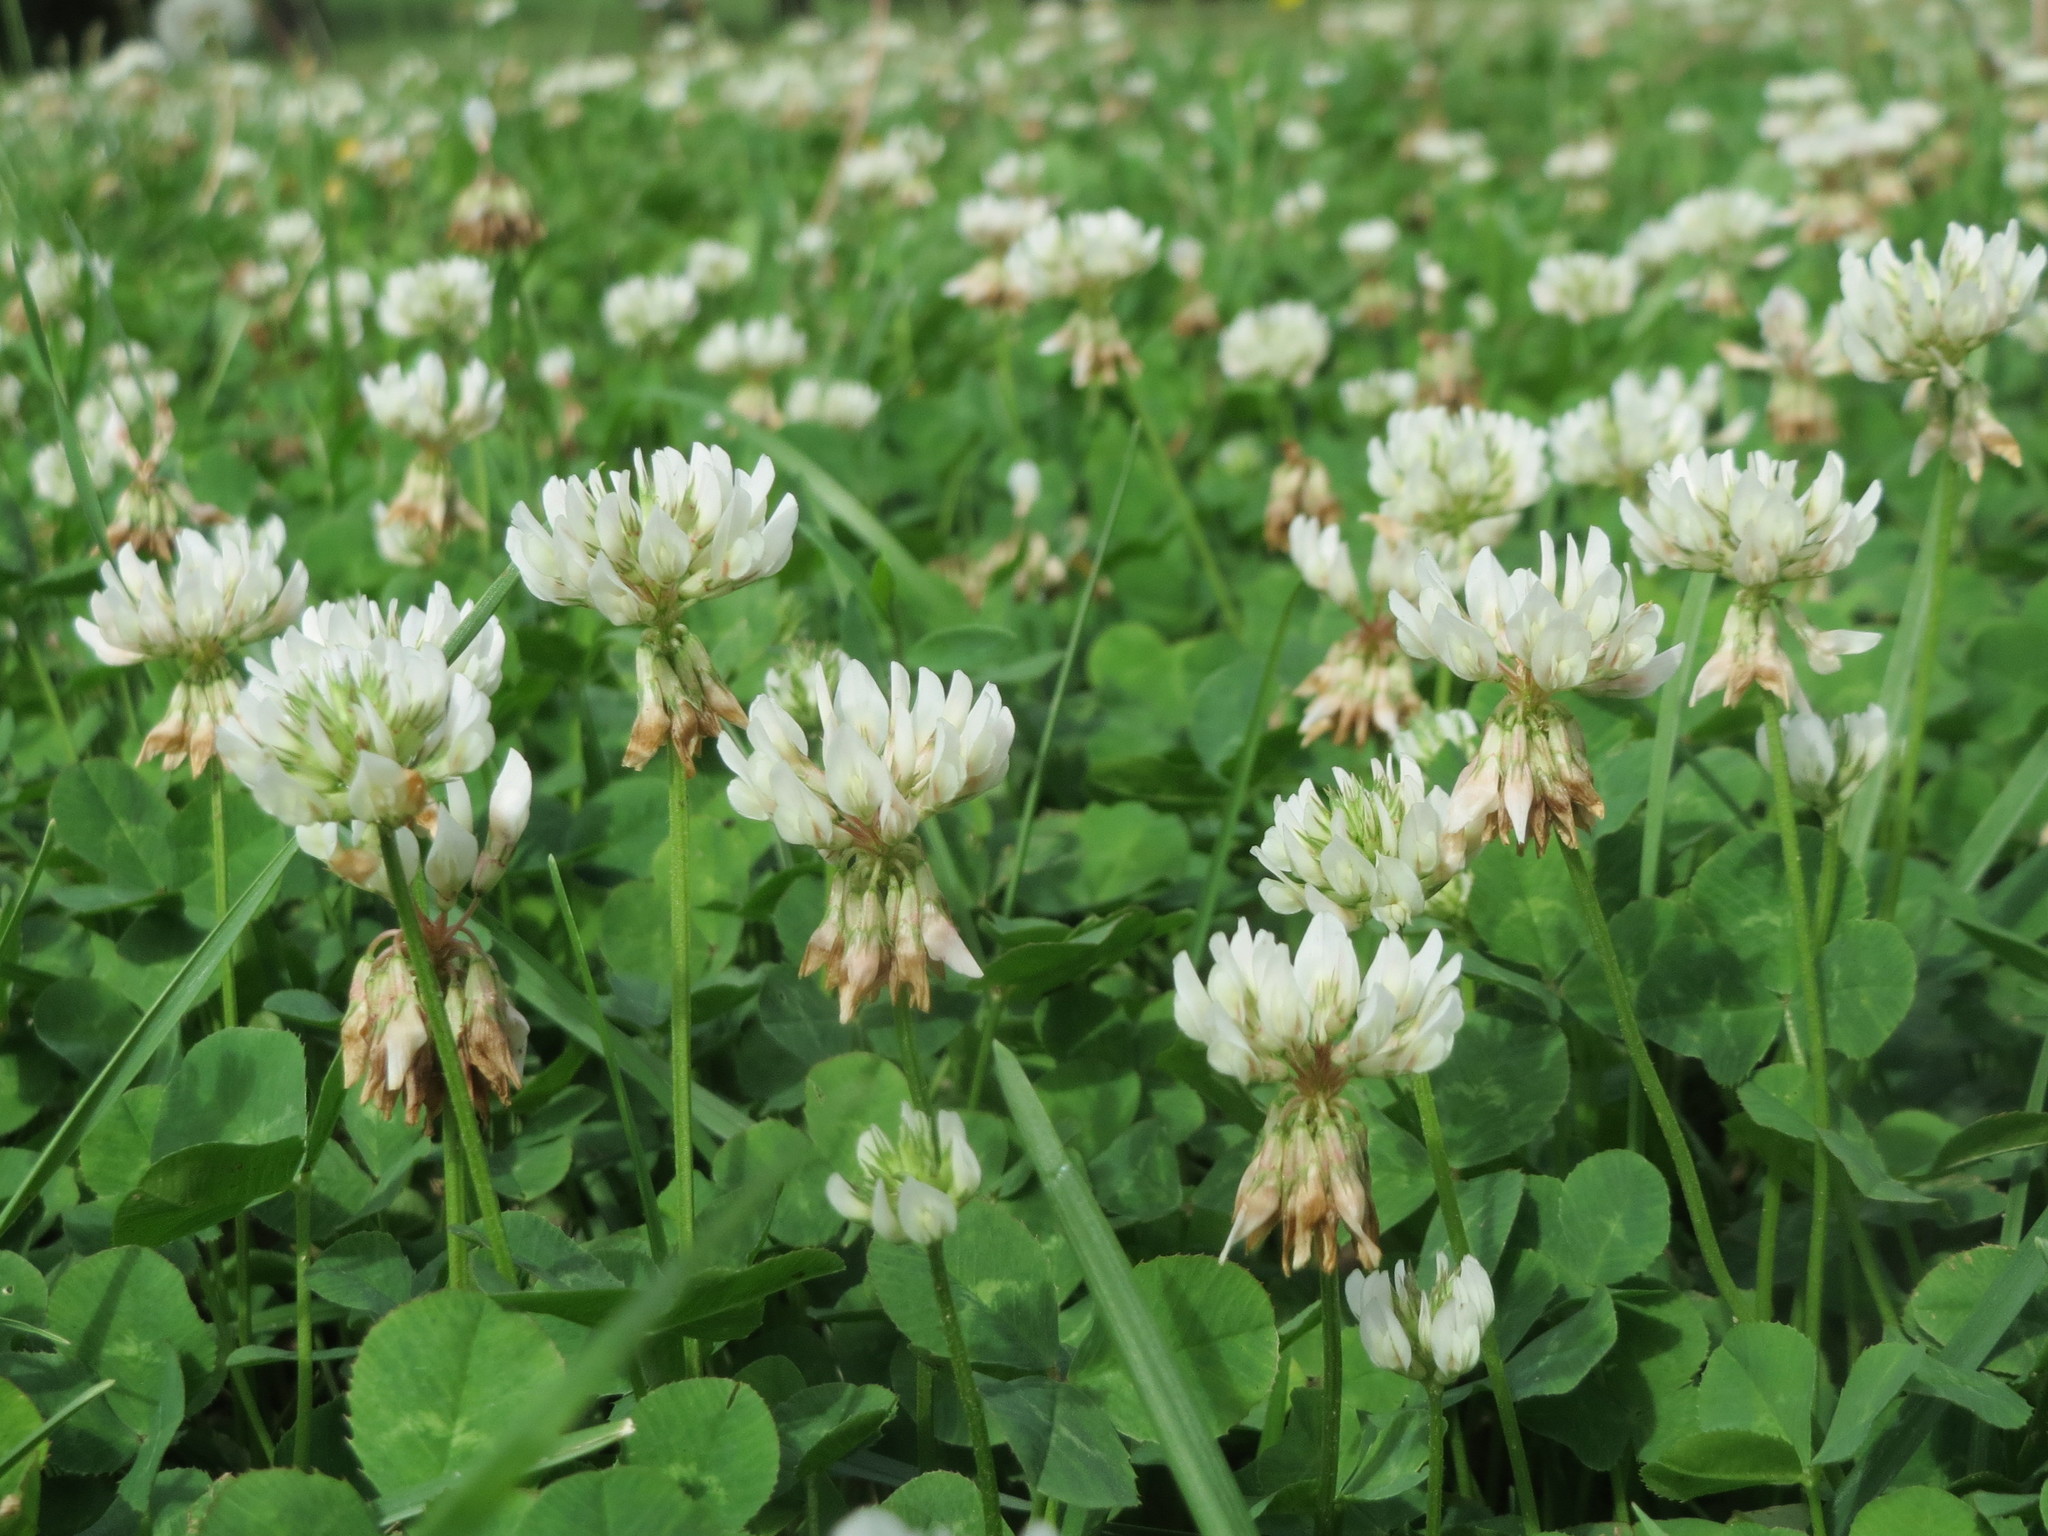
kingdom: Plantae
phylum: Tracheophyta
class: Magnoliopsida
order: Fabales
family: Fabaceae
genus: Trifolium
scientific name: Trifolium repens
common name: White clover
